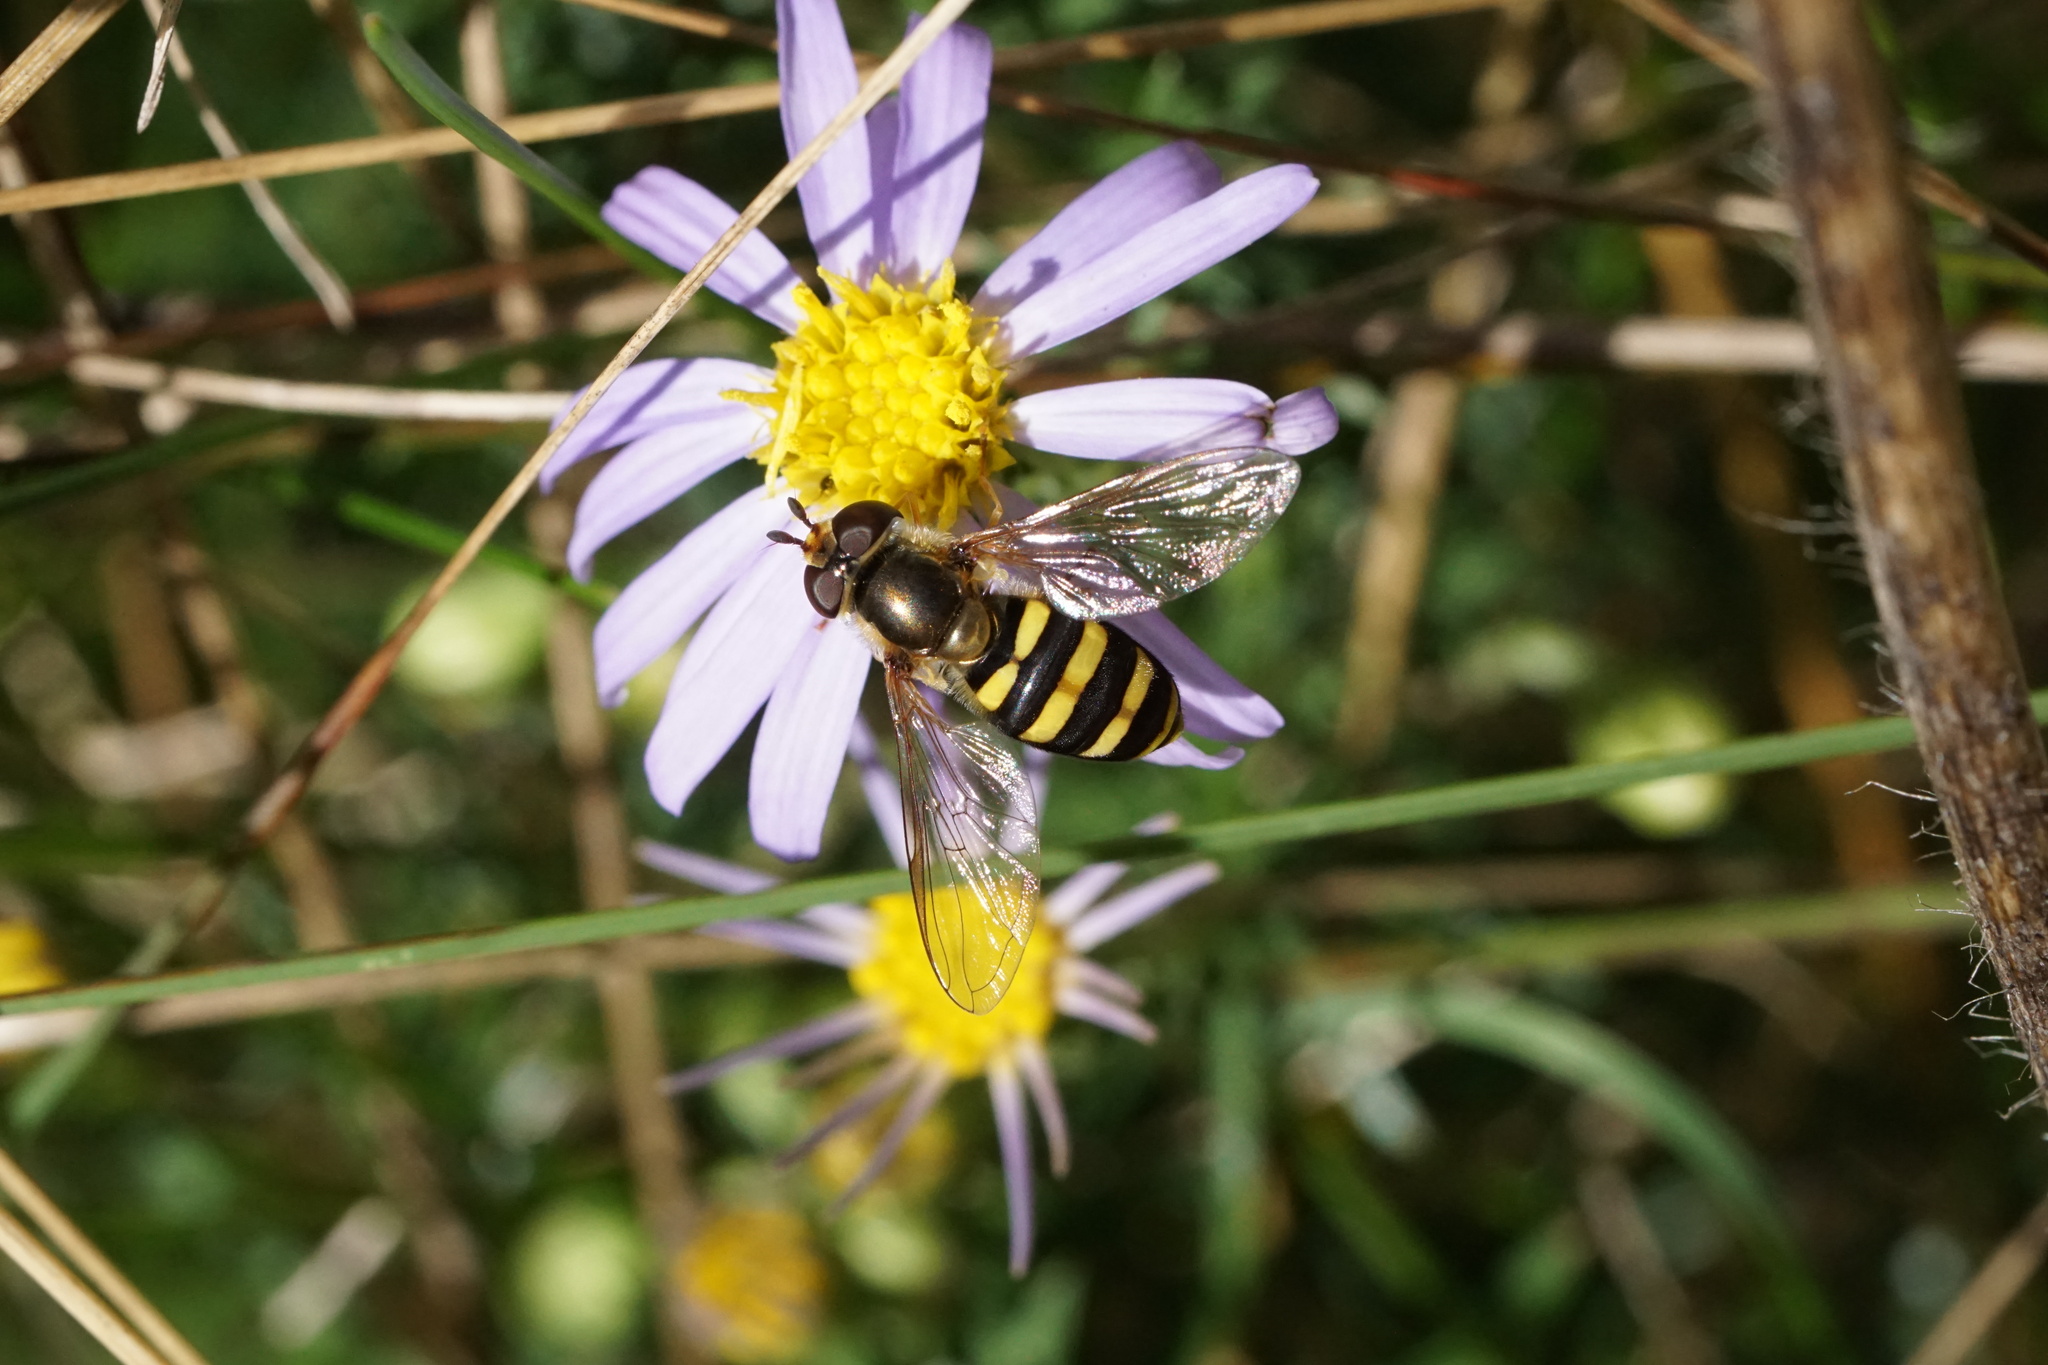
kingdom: Animalia
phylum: Arthropoda
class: Insecta
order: Diptera
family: Syrphidae
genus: Eupeodes
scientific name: Eupeodes
